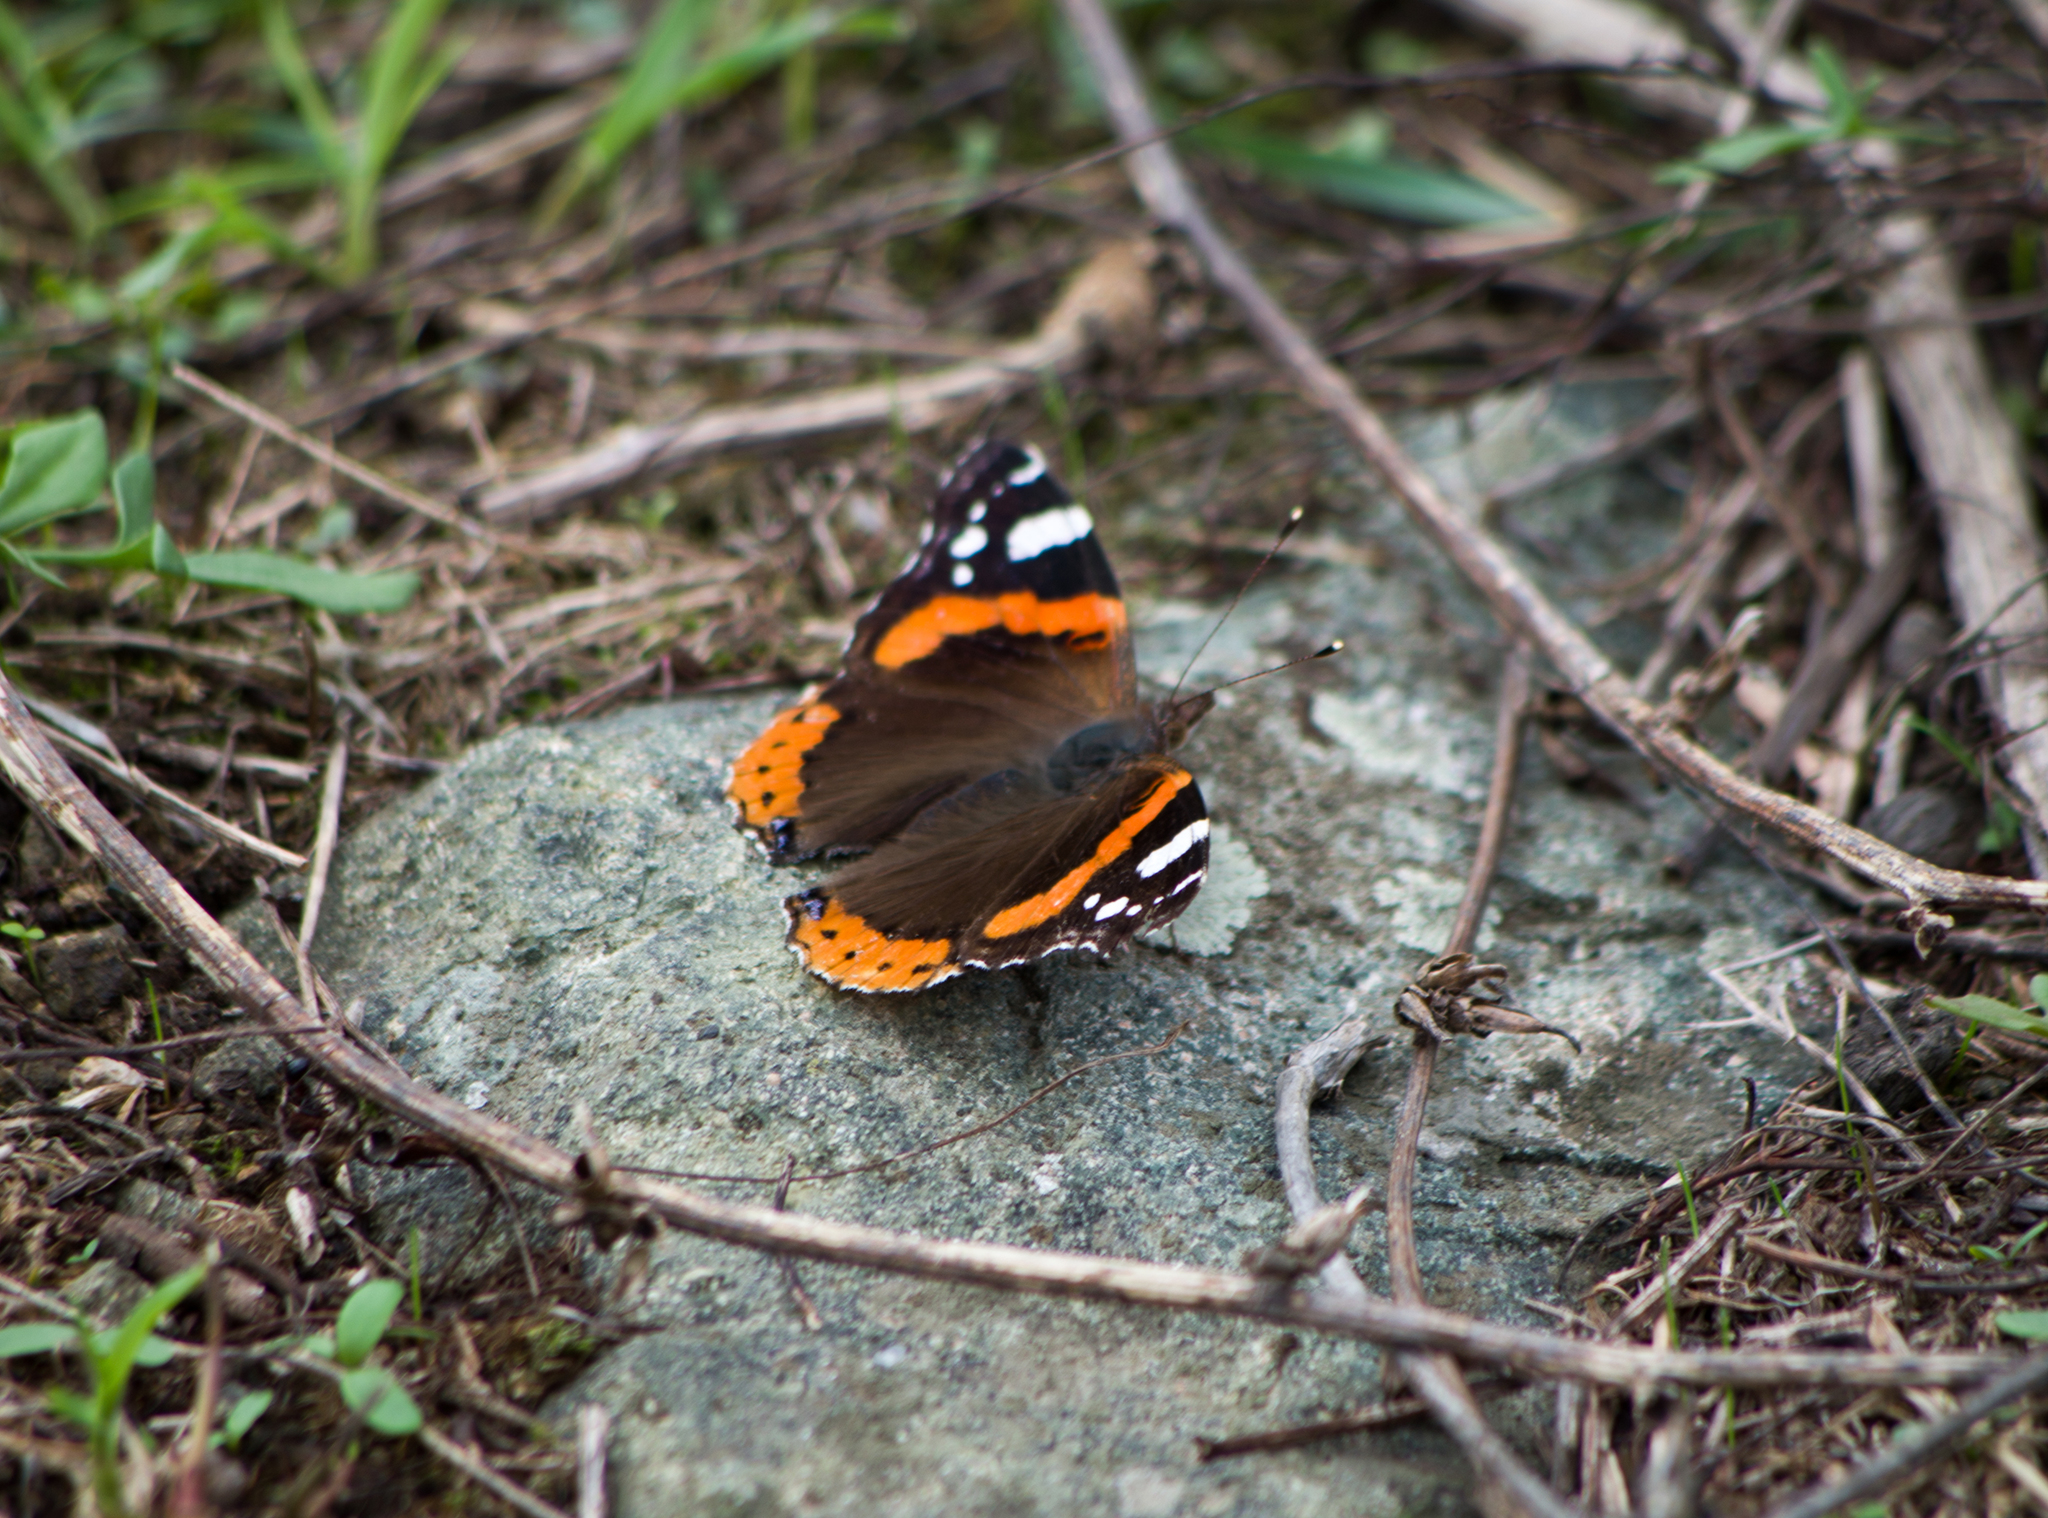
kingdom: Animalia
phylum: Arthropoda
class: Insecta
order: Lepidoptera
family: Nymphalidae
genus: Vanessa
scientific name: Vanessa atalanta
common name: Red admiral
